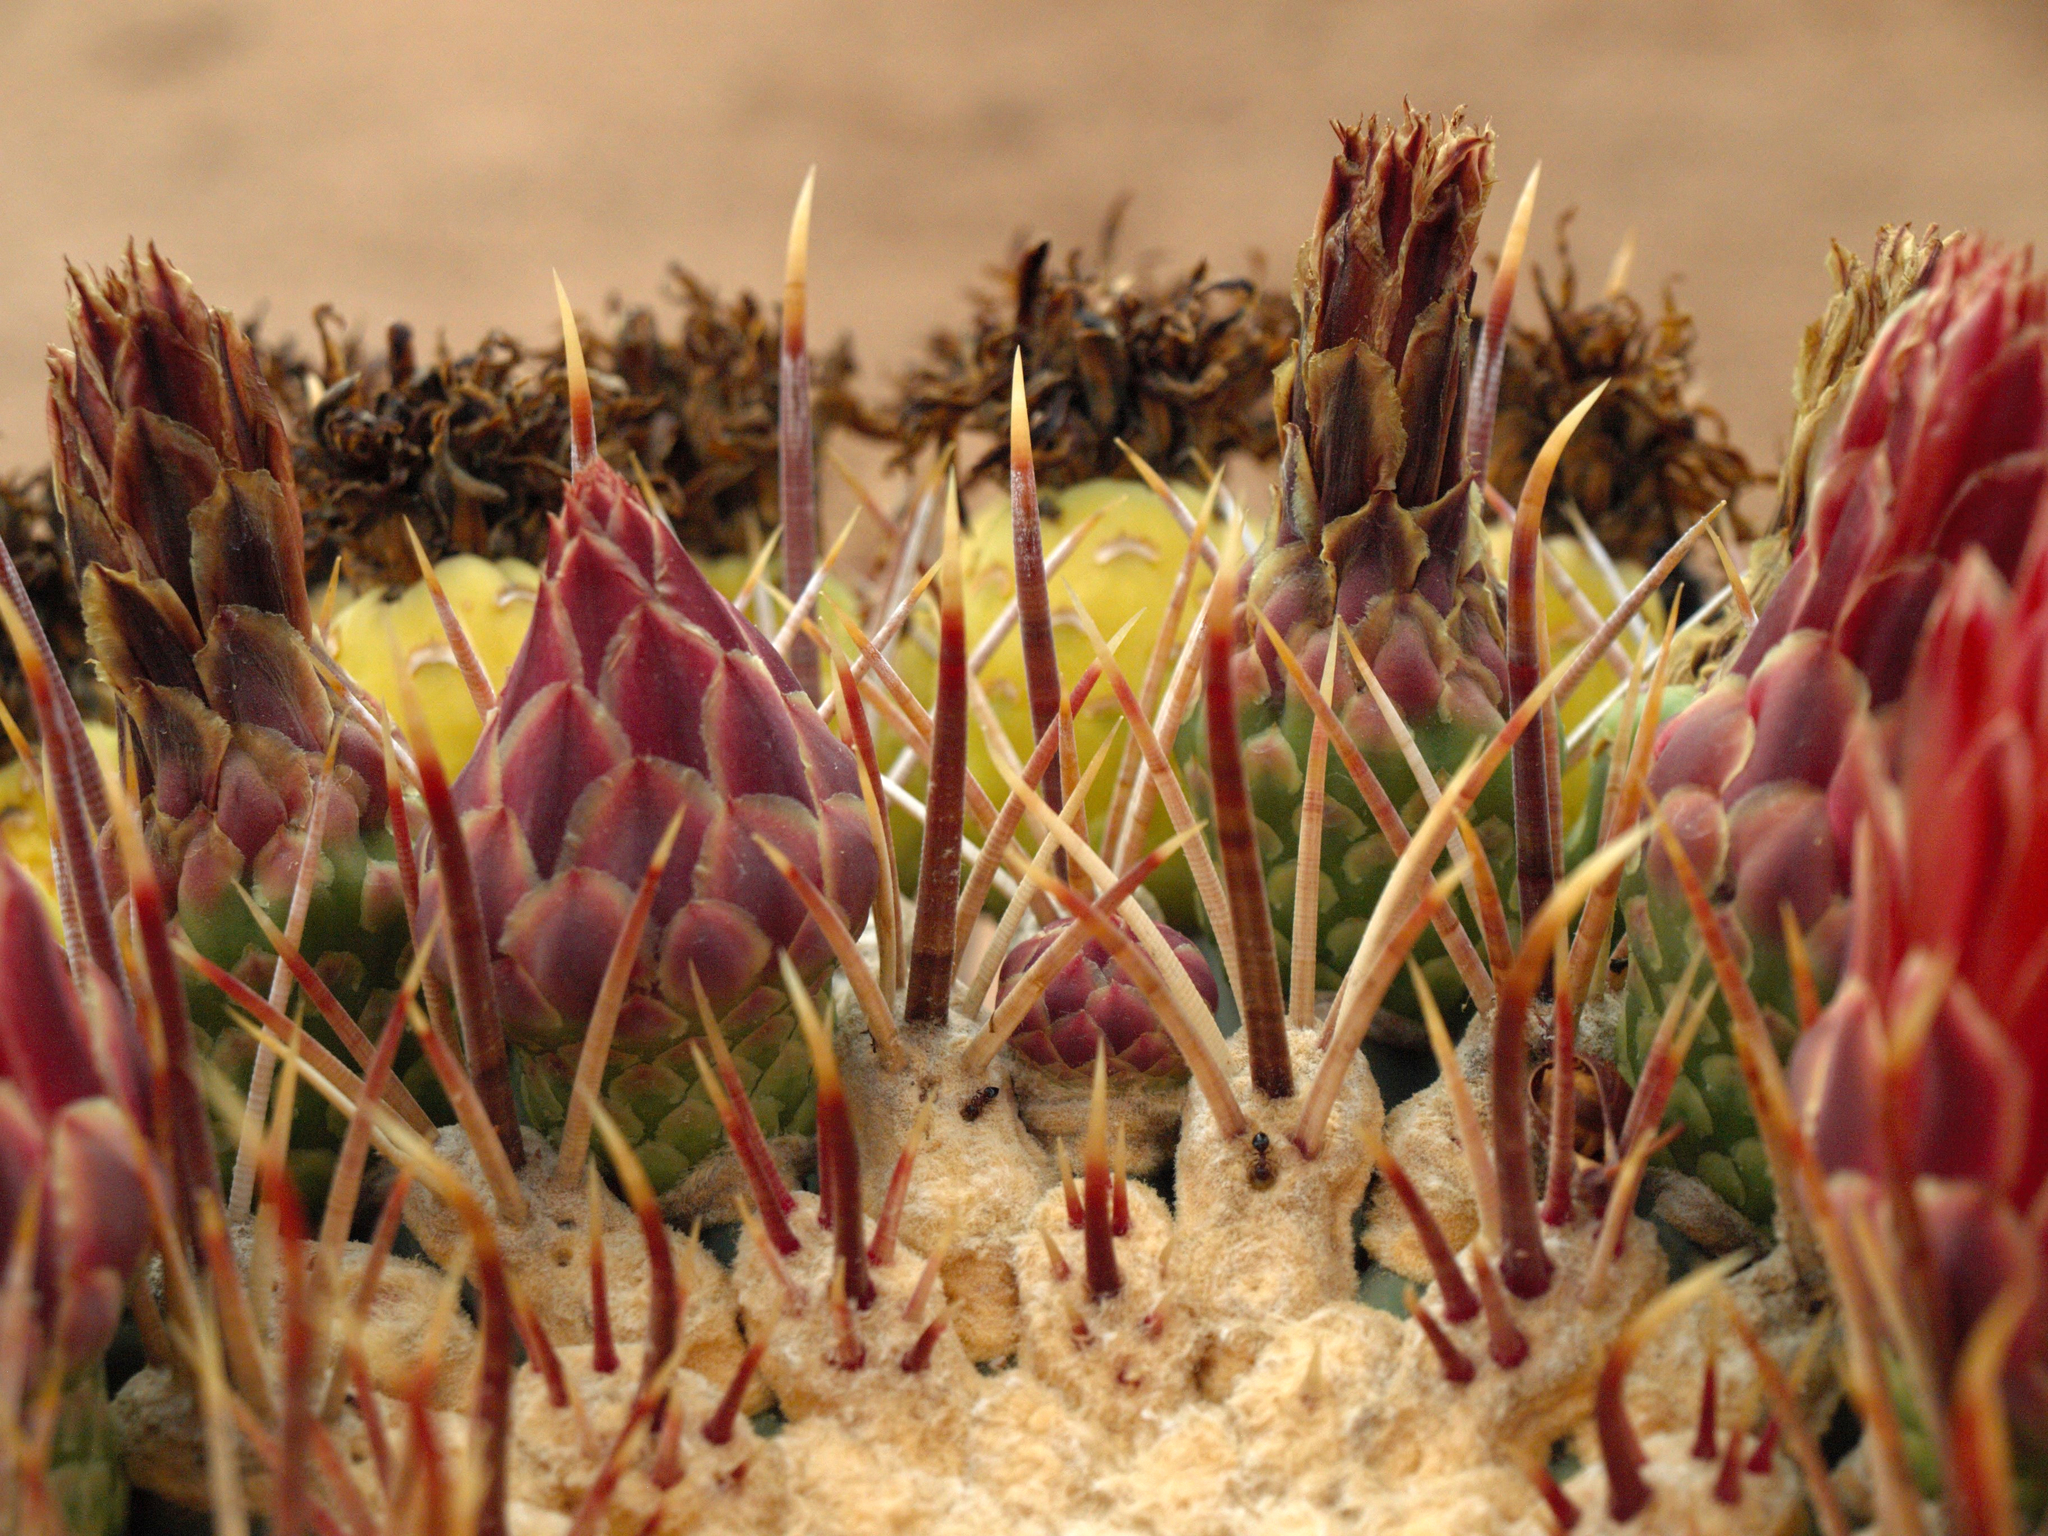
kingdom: Plantae
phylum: Tracheophyta
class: Magnoliopsida
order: Caryophyllales
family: Cactaceae
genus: Ferocactus
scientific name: Ferocactus emoryi
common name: Emory's barrel cactus
